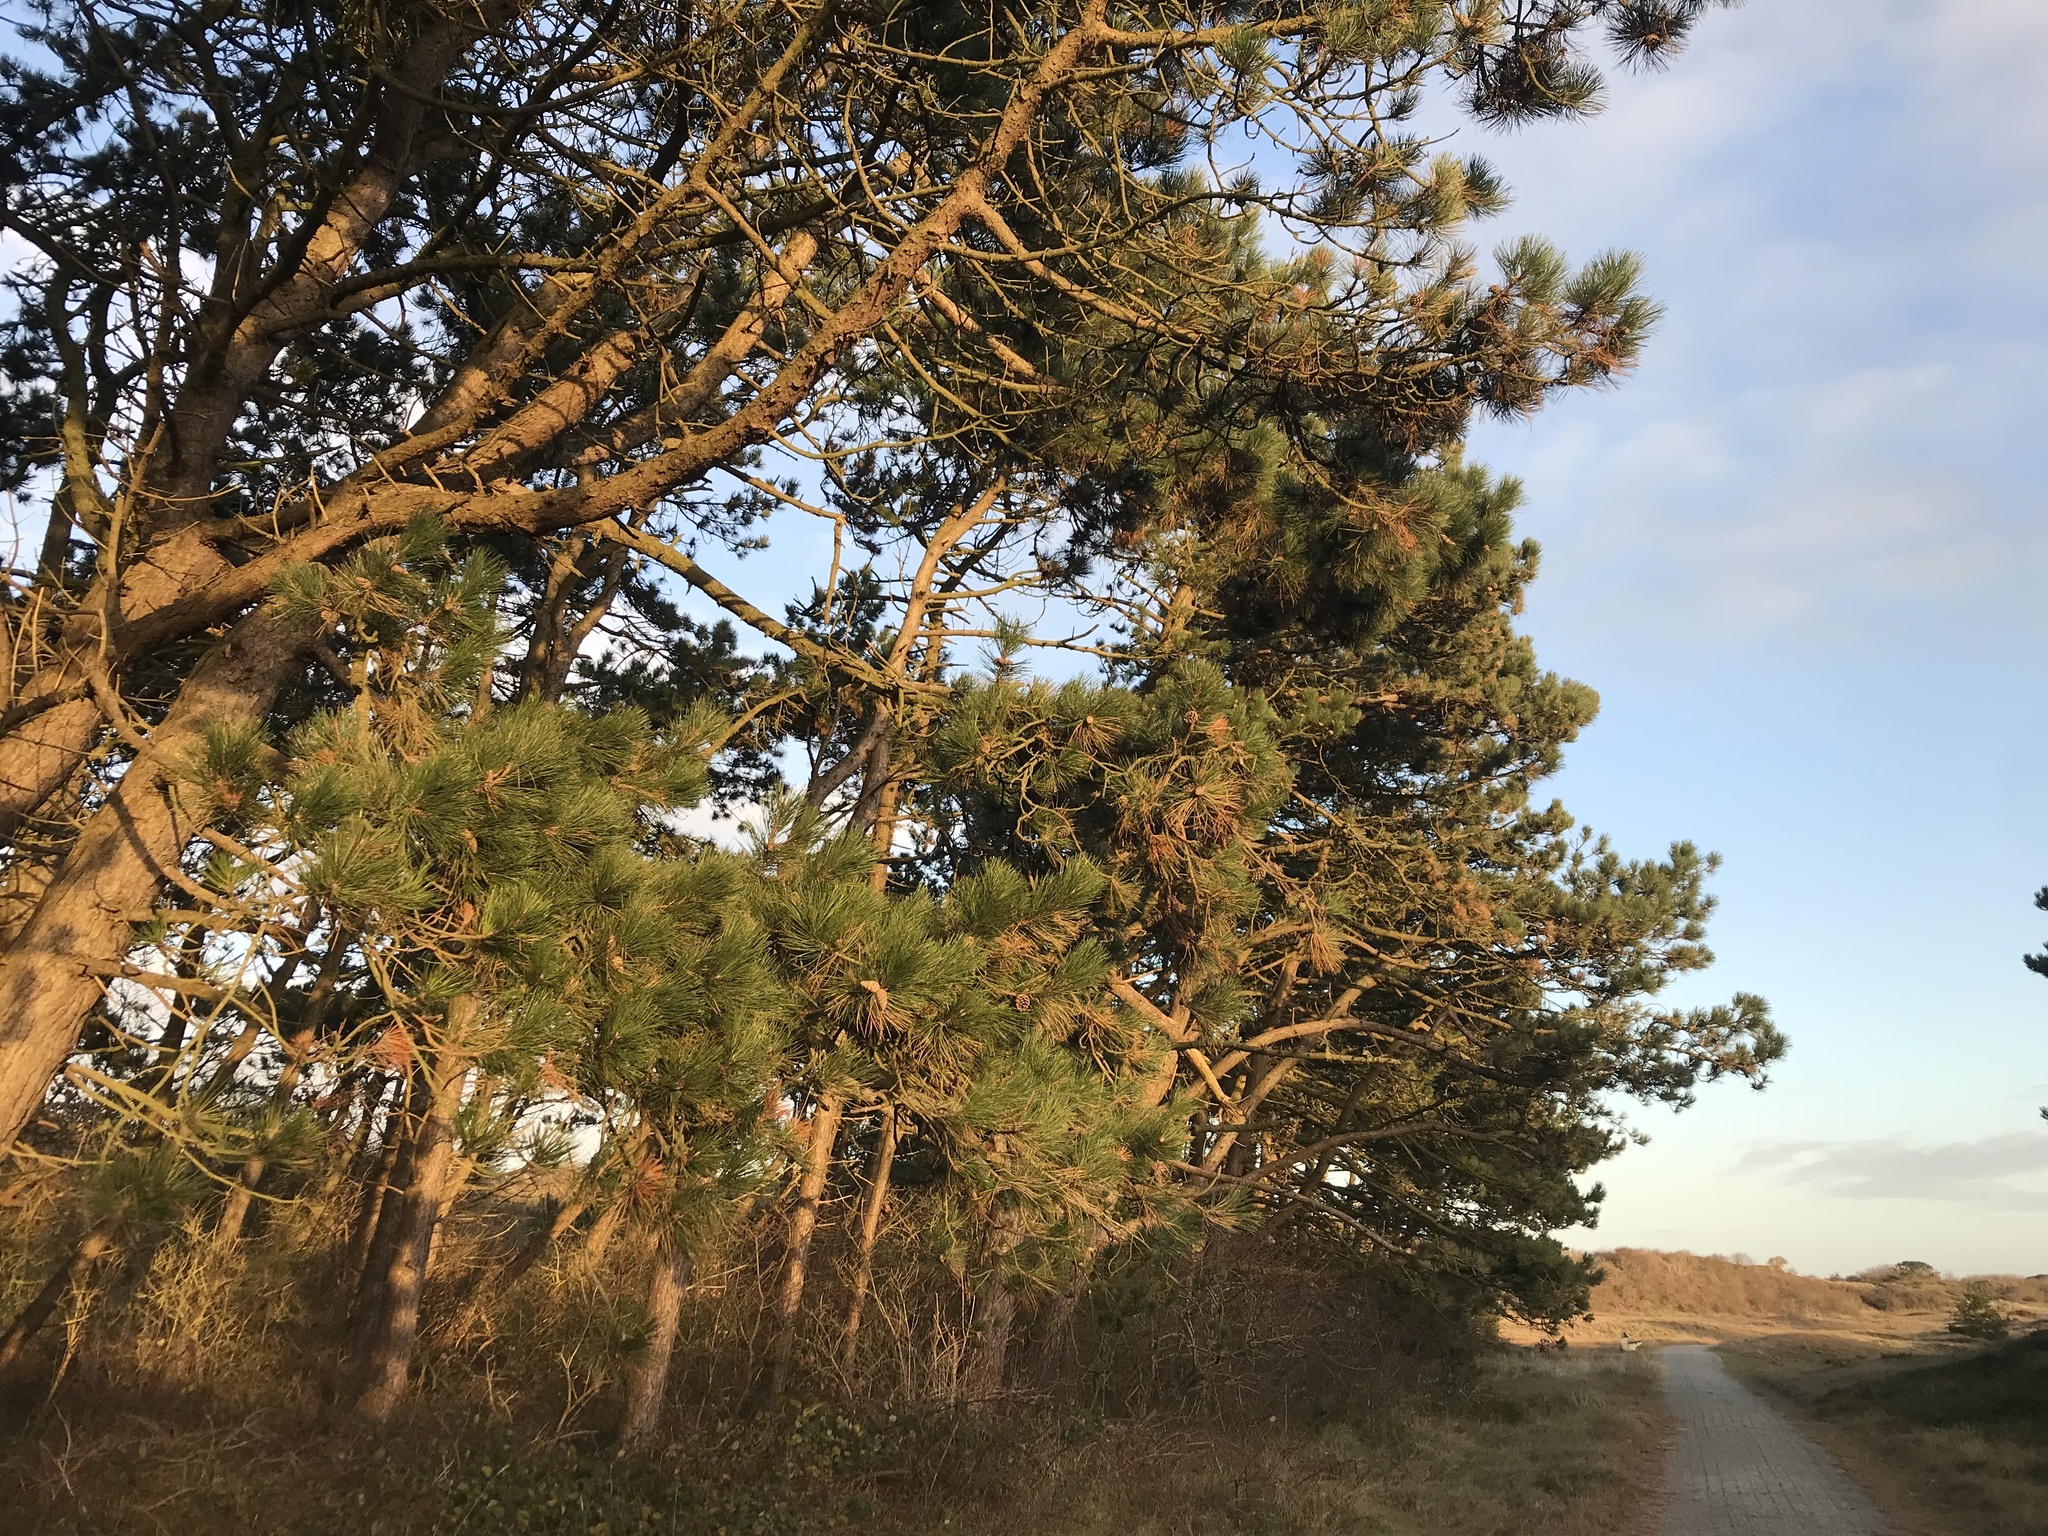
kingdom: Plantae
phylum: Tracheophyta
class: Pinopsida
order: Pinales
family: Pinaceae
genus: Pinus
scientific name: Pinus nigra
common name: Austrian pine
